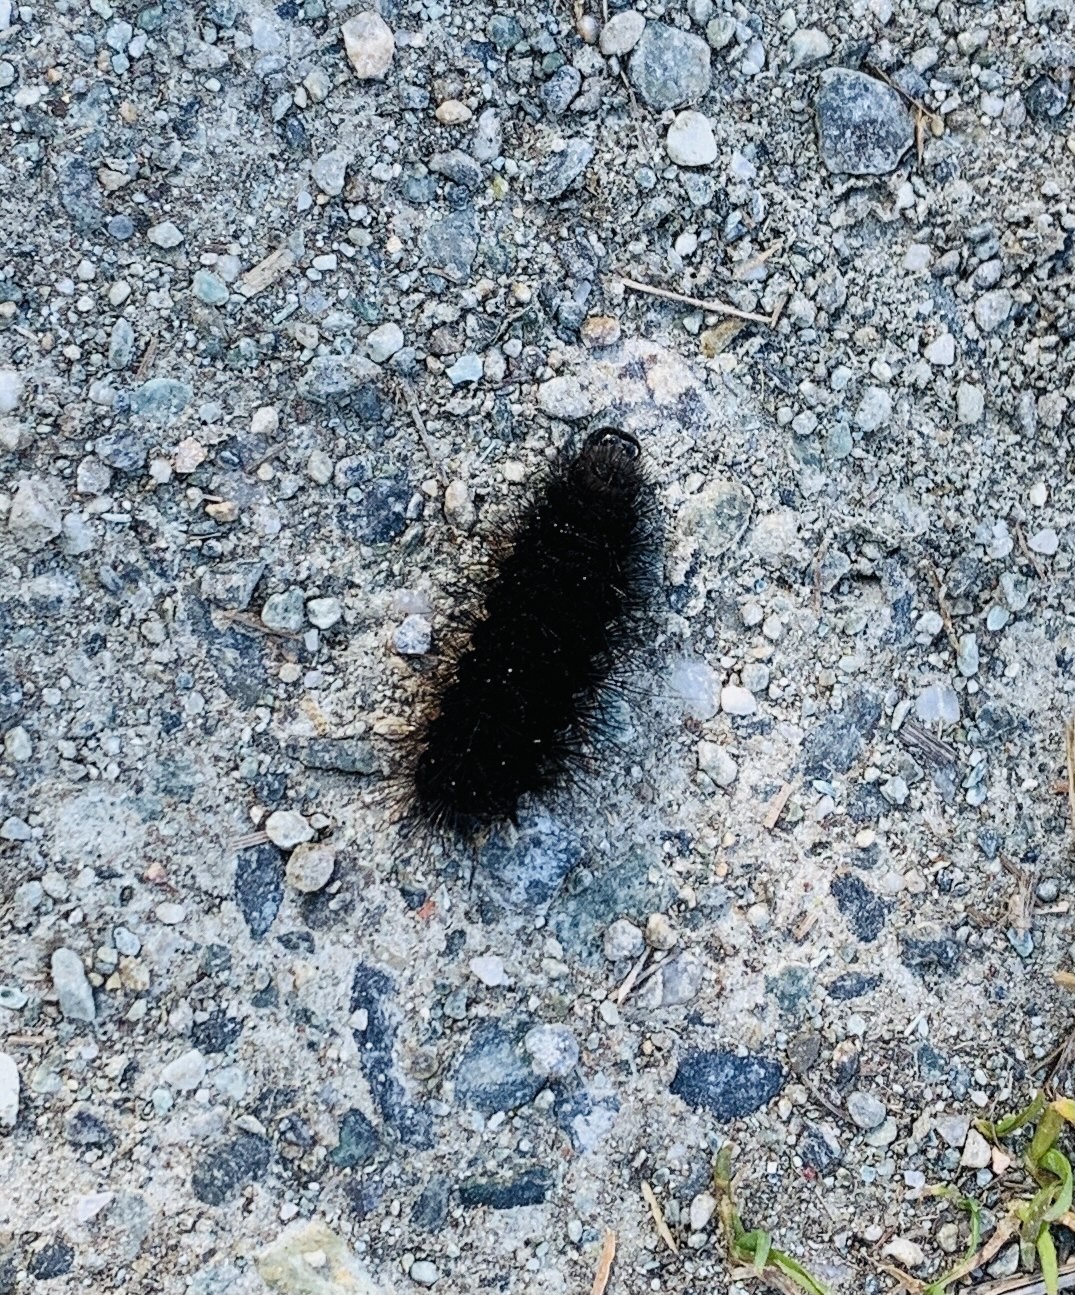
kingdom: Animalia
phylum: Arthropoda
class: Insecta
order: Lepidoptera
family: Erebidae
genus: Phragmatobia
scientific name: Phragmatobia fuliginosa
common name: Ruby tiger
